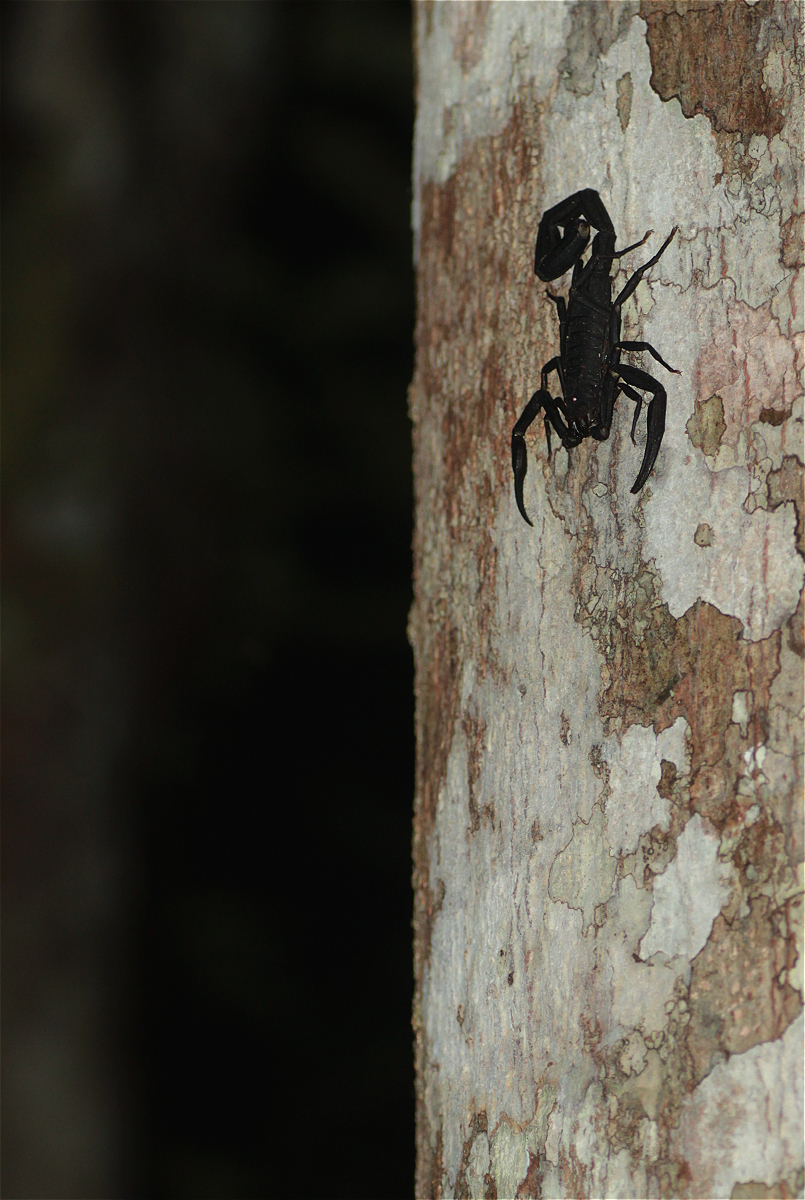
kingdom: Animalia
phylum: Arthropoda
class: Arachnida
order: Scorpiones
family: Buthidae
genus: Tityus
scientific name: Tityus asthenes
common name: Scorpions
